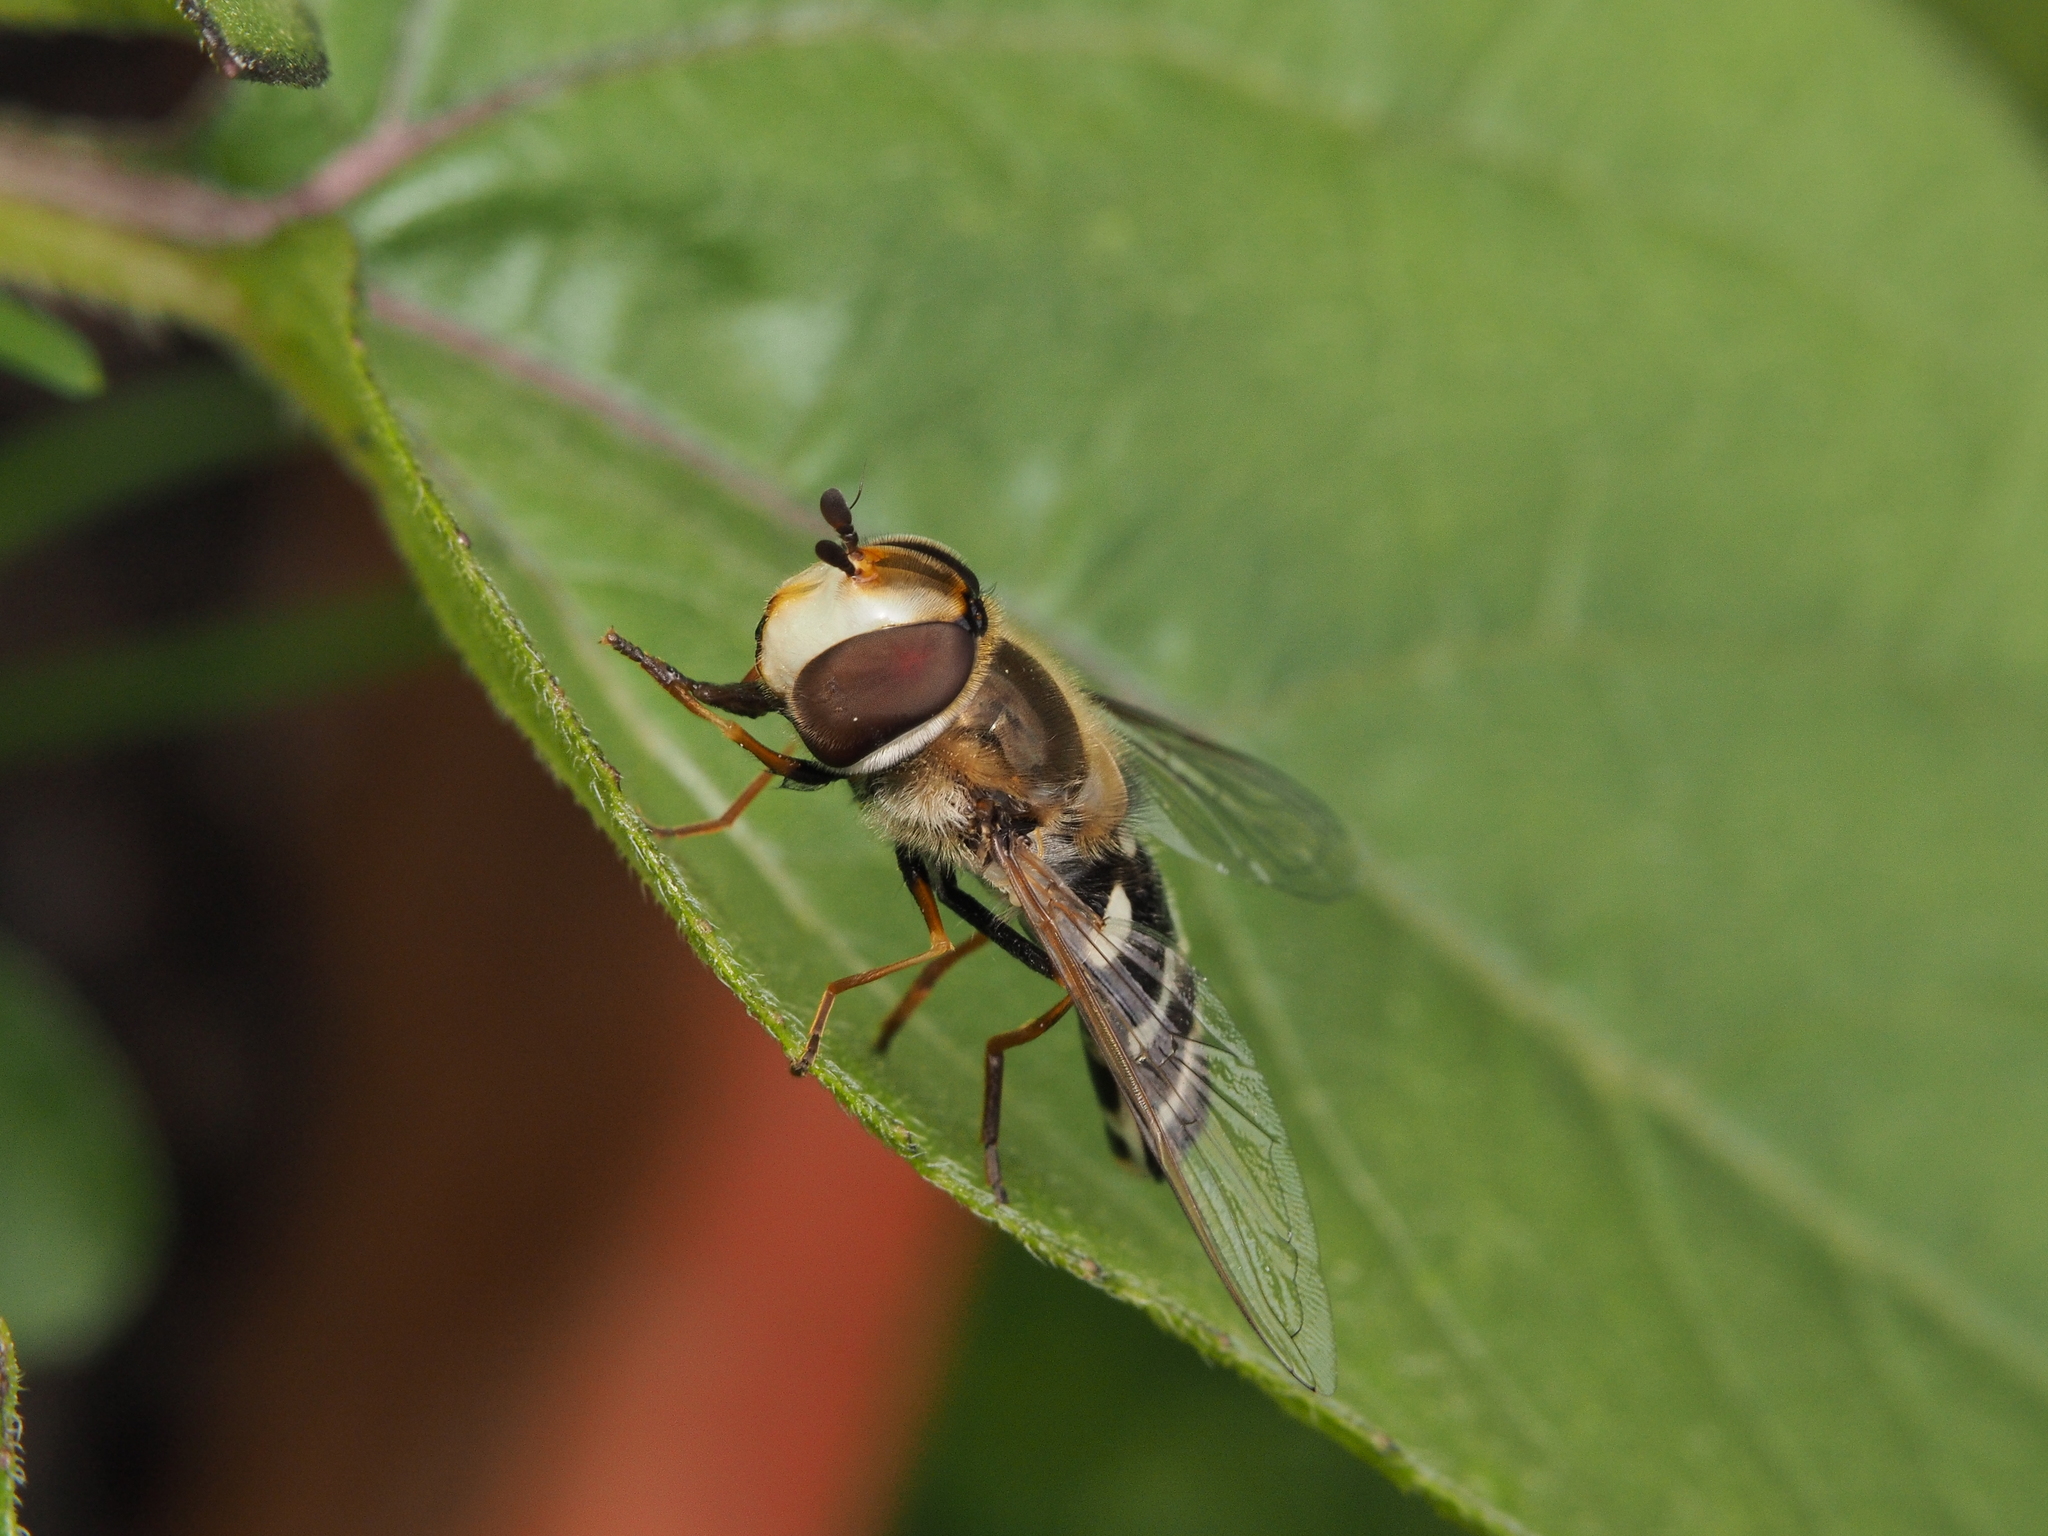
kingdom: Animalia
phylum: Arthropoda
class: Insecta
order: Diptera
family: Syrphidae
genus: Scaeva
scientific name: Scaeva pyrastri
